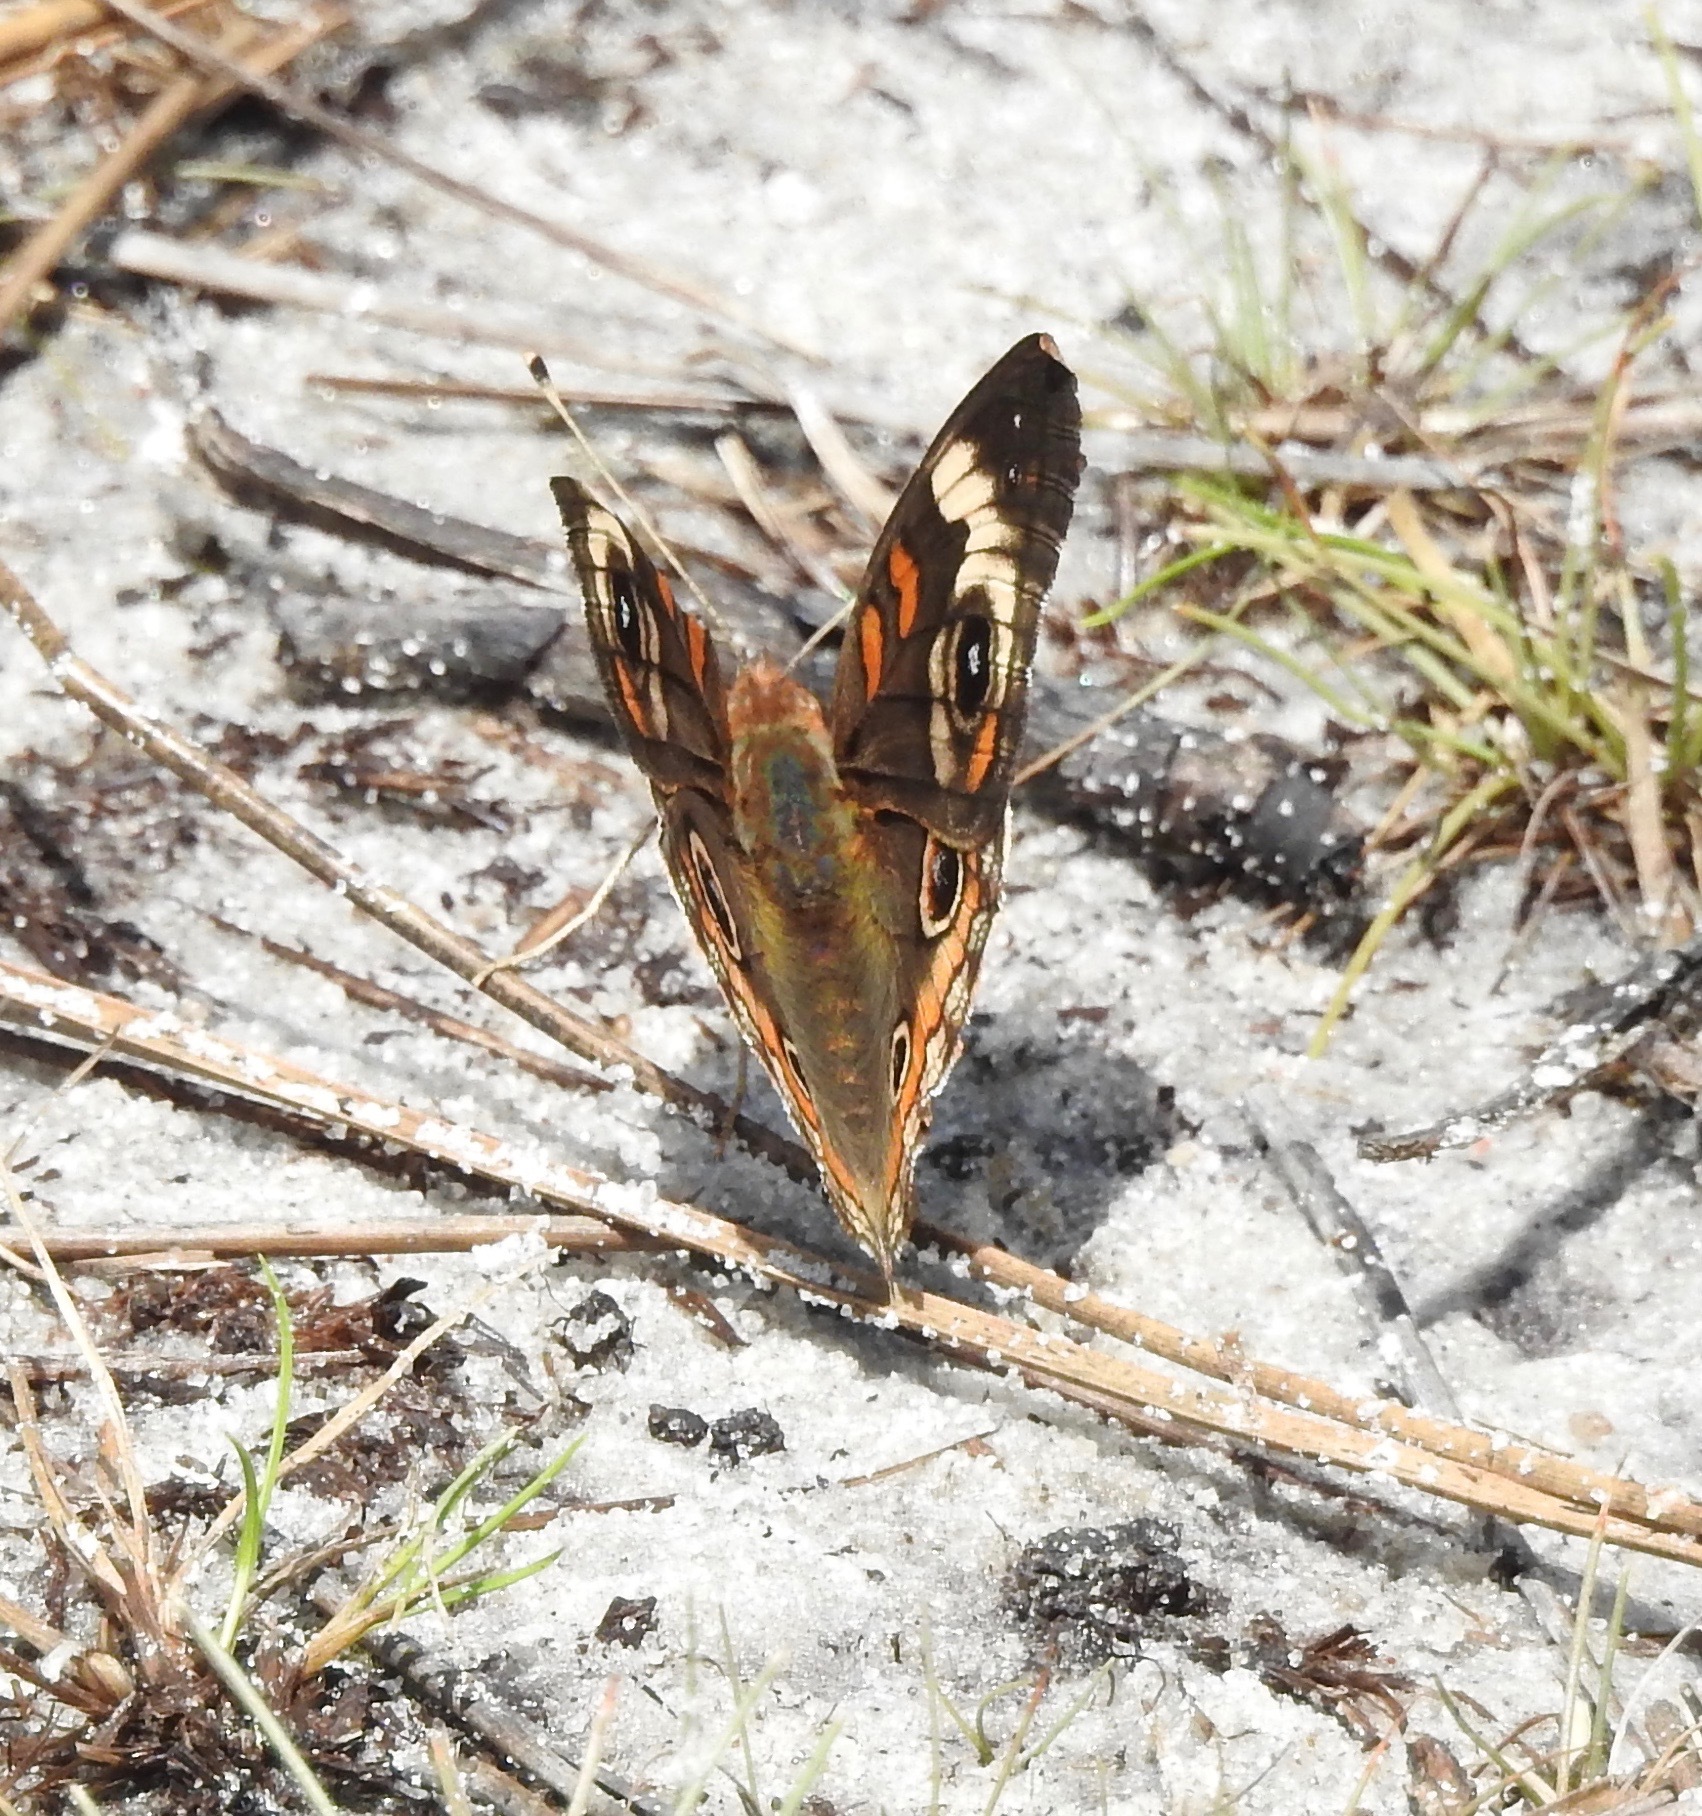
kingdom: Animalia
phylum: Arthropoda
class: Insecta
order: Lepidoptera
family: Nymphalidae
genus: Junonia
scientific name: Junonia coenia
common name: Common buckeye
